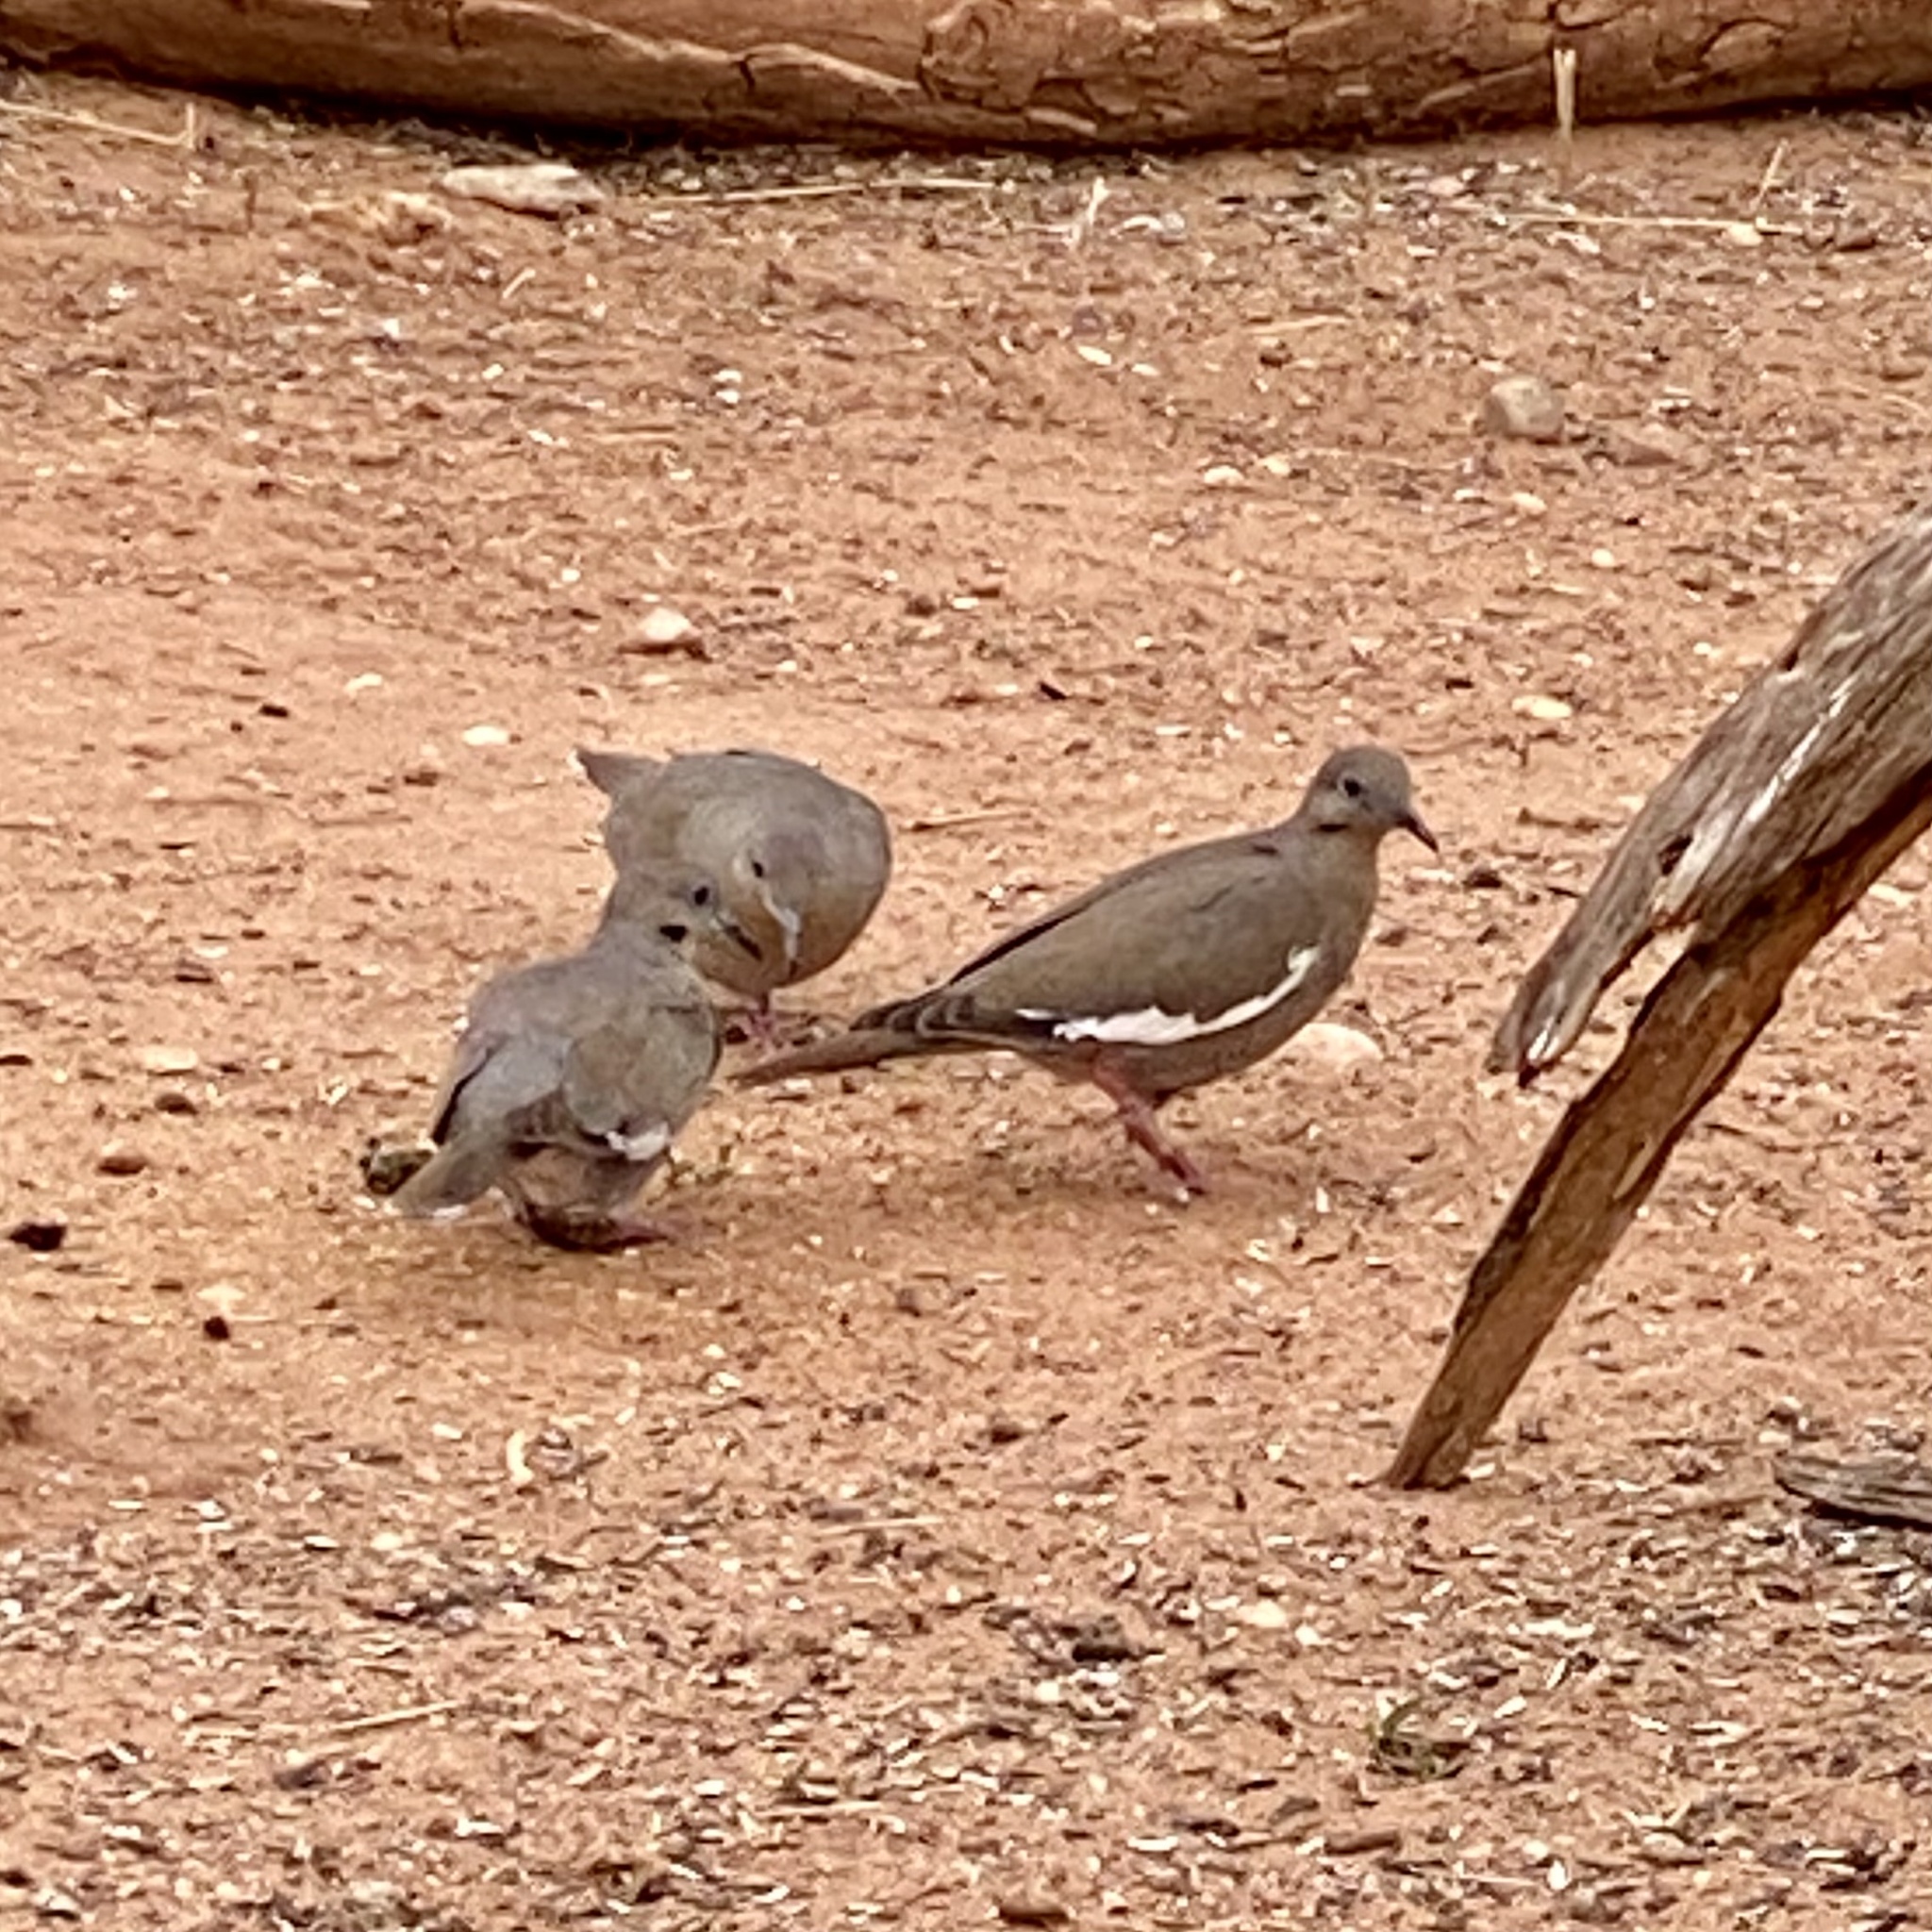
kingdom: Animalia
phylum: Chordata
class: Aves
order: Columbiformes
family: Columbidae
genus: Zenaida
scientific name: Zenaida asiatica
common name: White-winged dove
